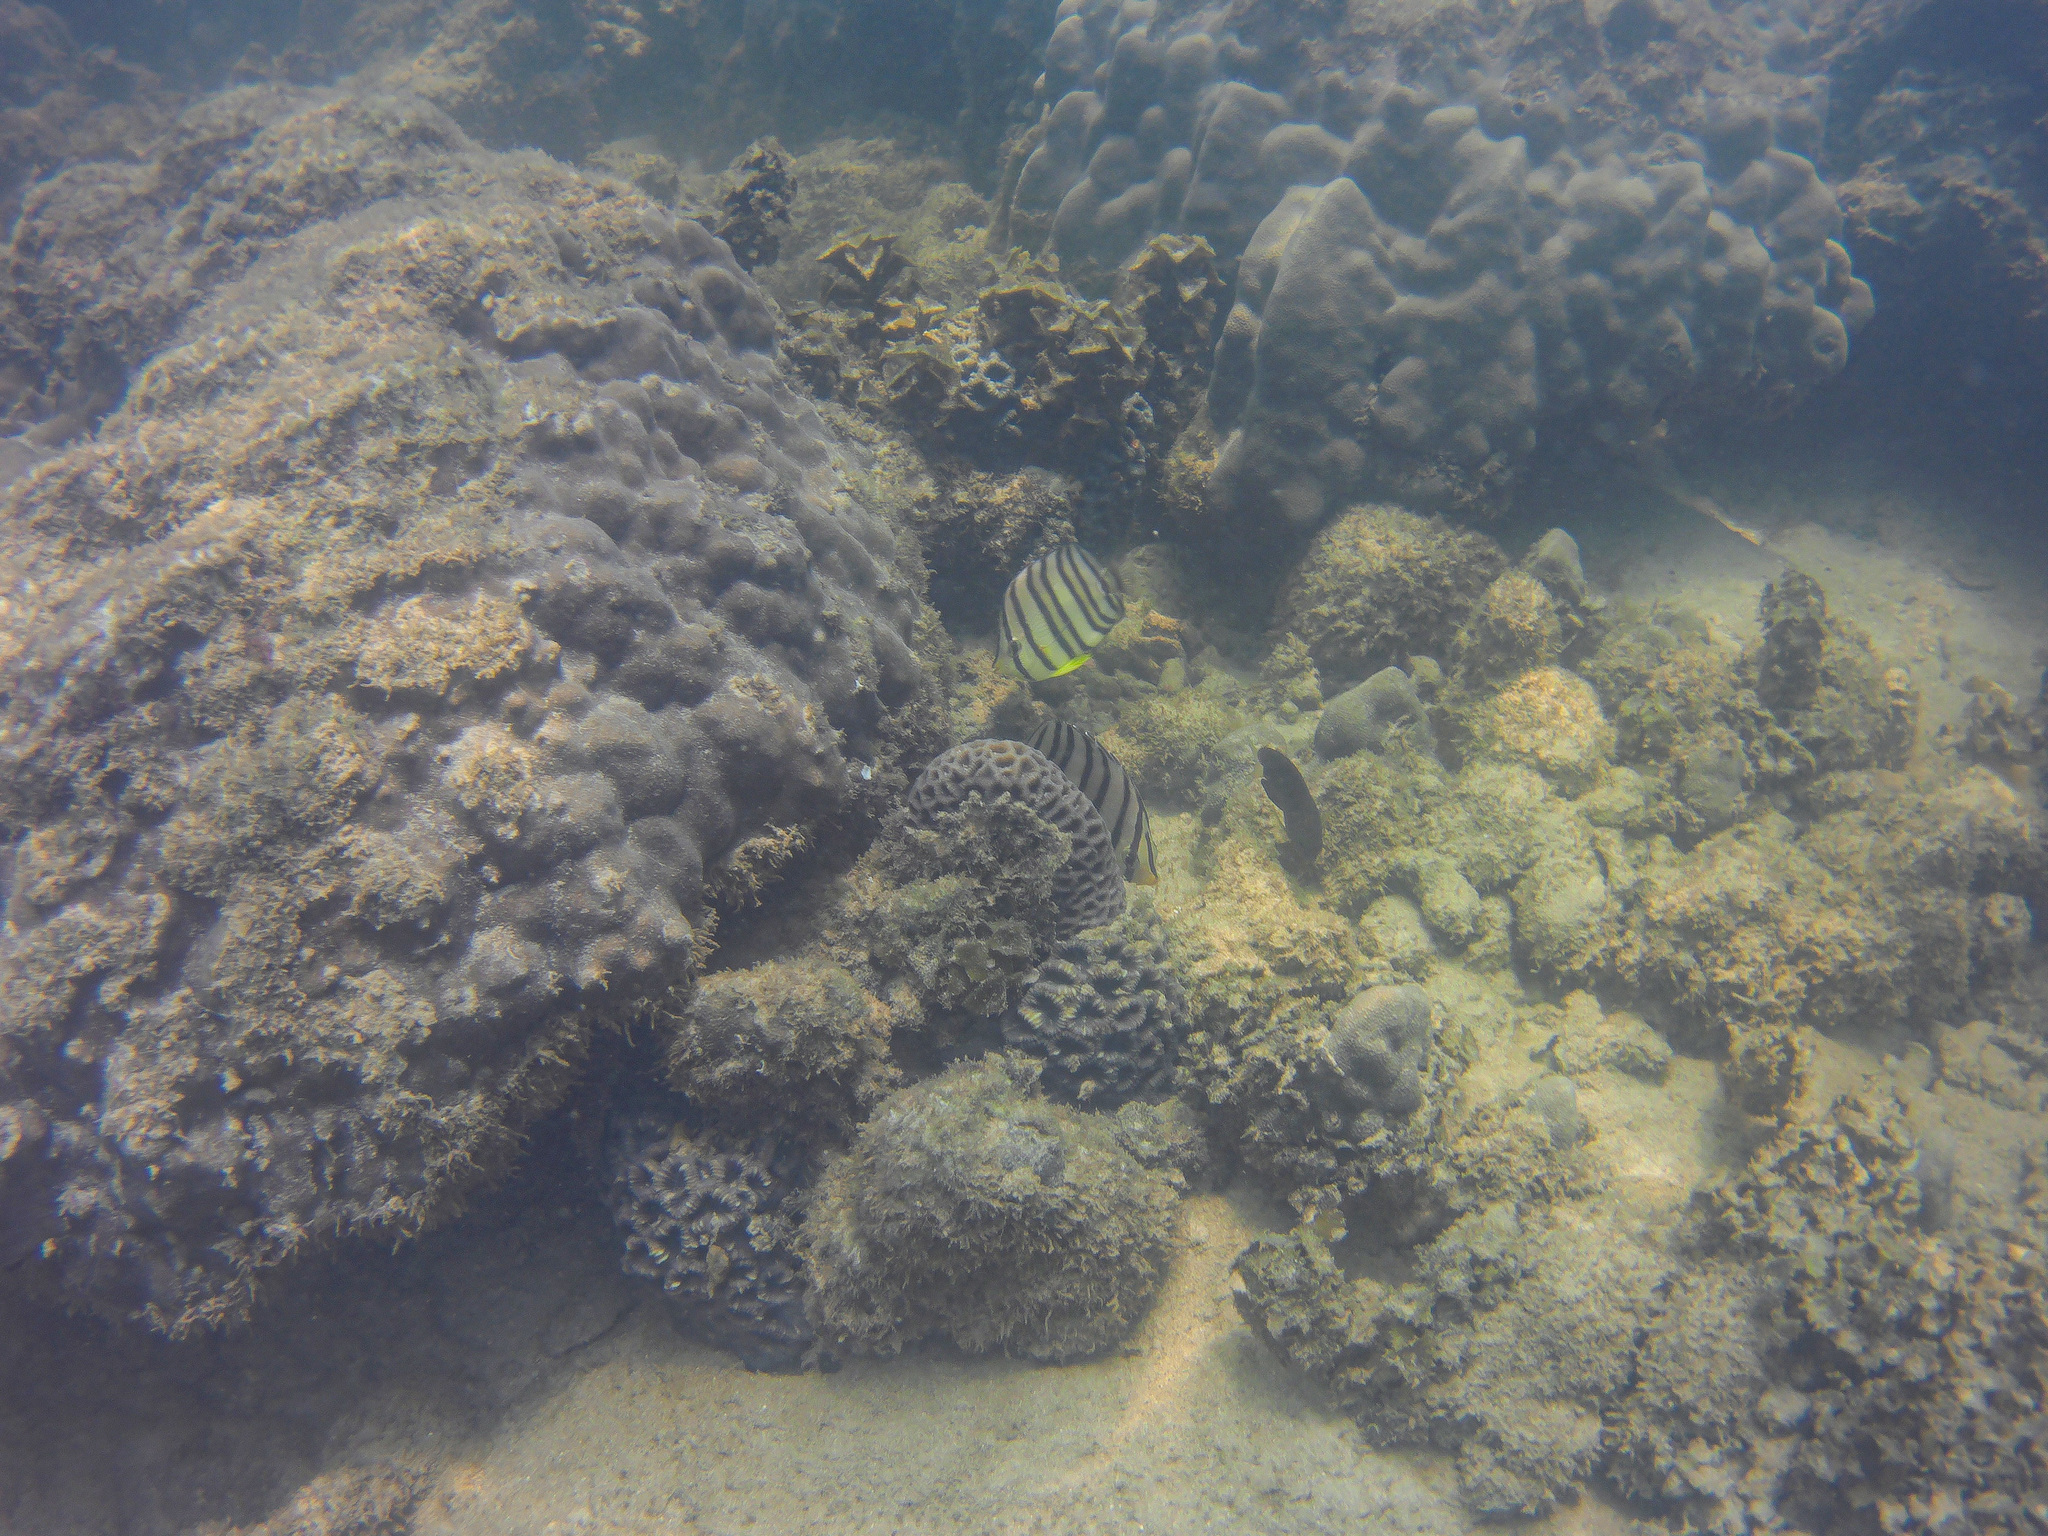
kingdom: Animalia
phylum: Chordata
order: Perciformes
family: Chaetodontidae
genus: Chaetodon
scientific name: Chaetodon octofasciatus
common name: Eightband butterflyfish
